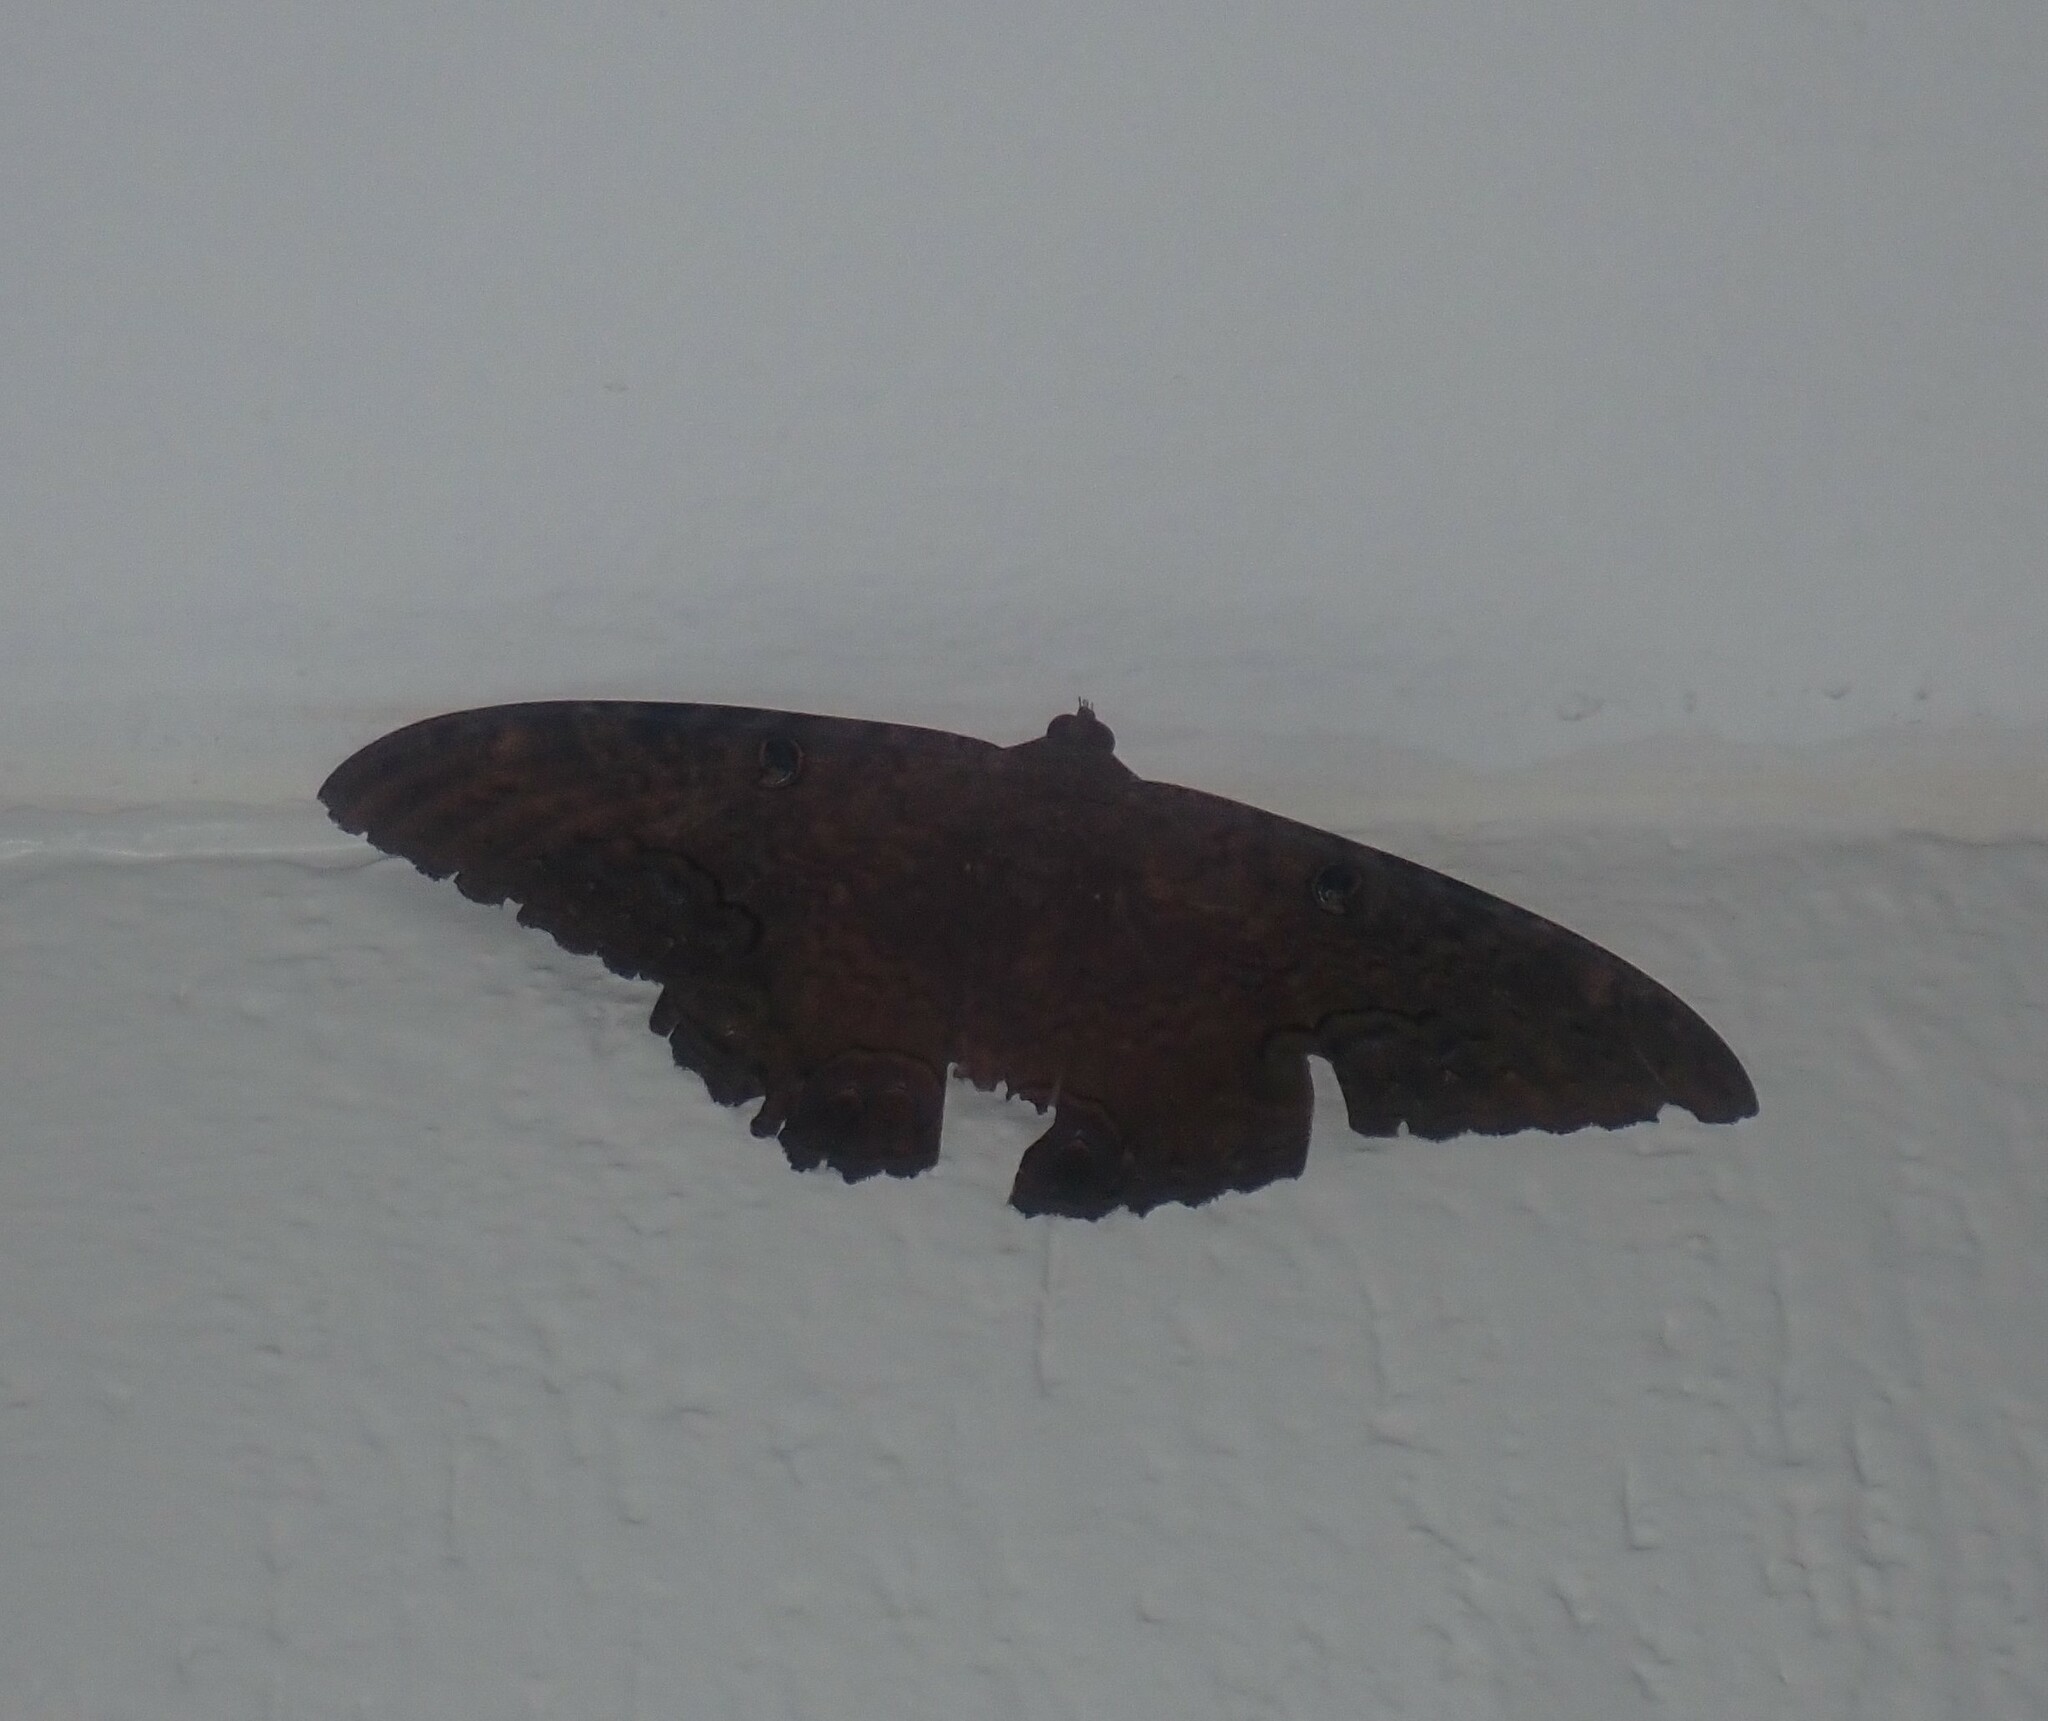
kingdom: Animalia
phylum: Arthropoda
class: Insecta
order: Lepidoptera
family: Erebidae
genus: Ascalapha
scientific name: Ascalapha odorata
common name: Black witch
